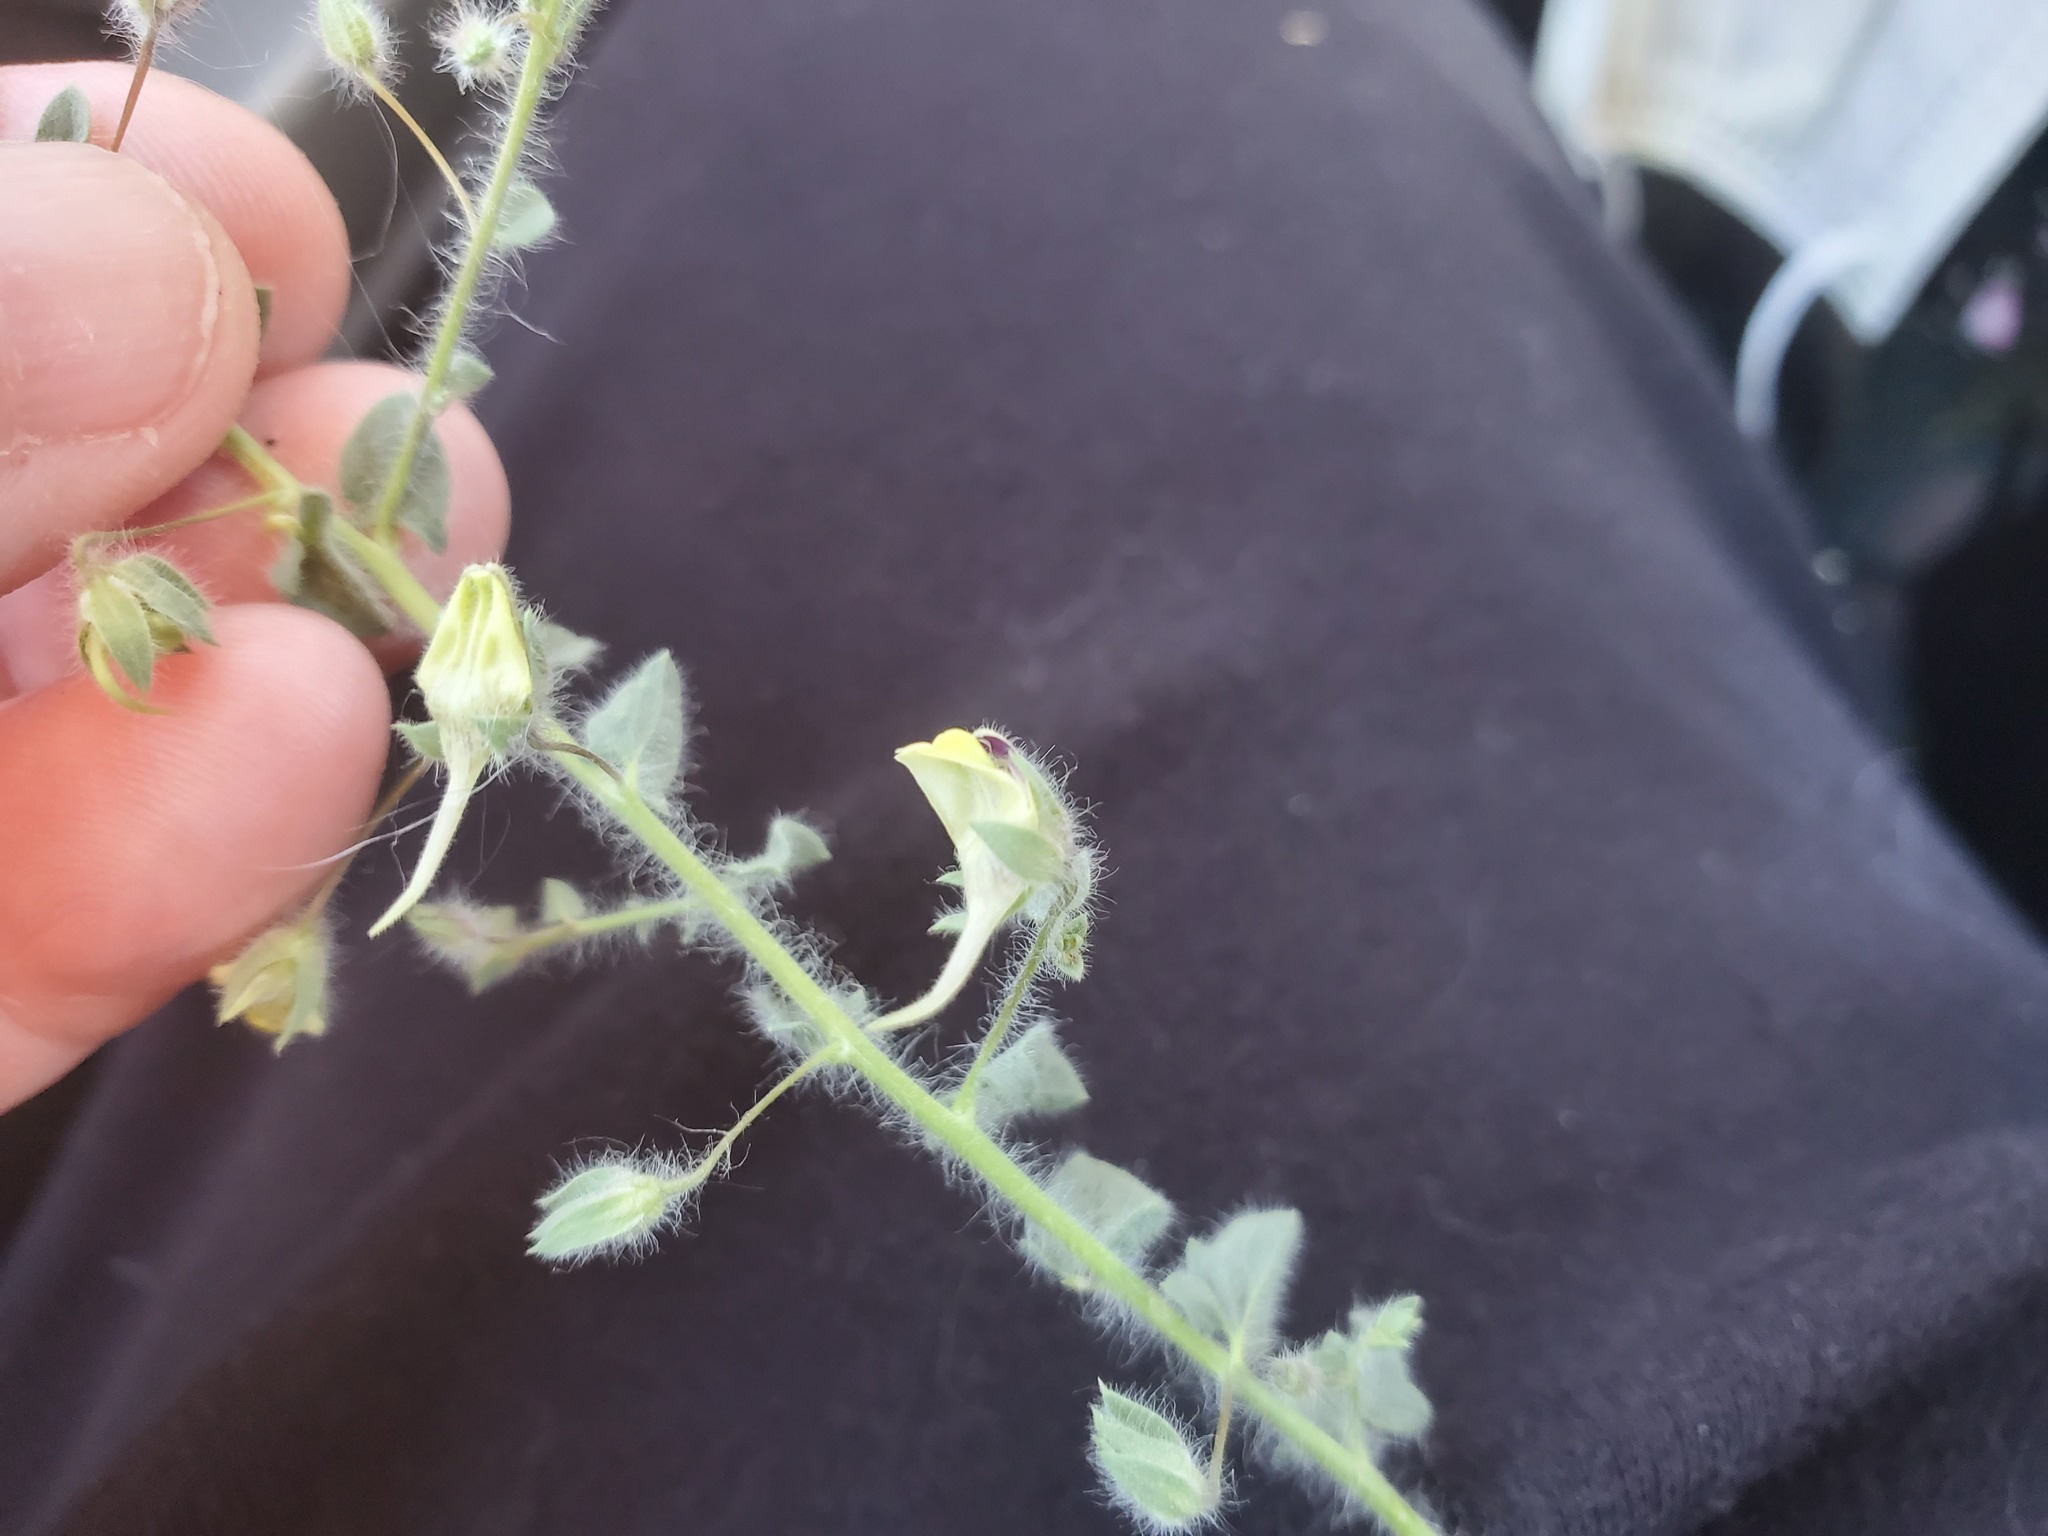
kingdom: Plantae
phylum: Tracheophyta
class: Magnoliopsida
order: Lamiales
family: Plantaginaceae
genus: Kickxia
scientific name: Kickxia elatine
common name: Sharp-leaved fluellen
